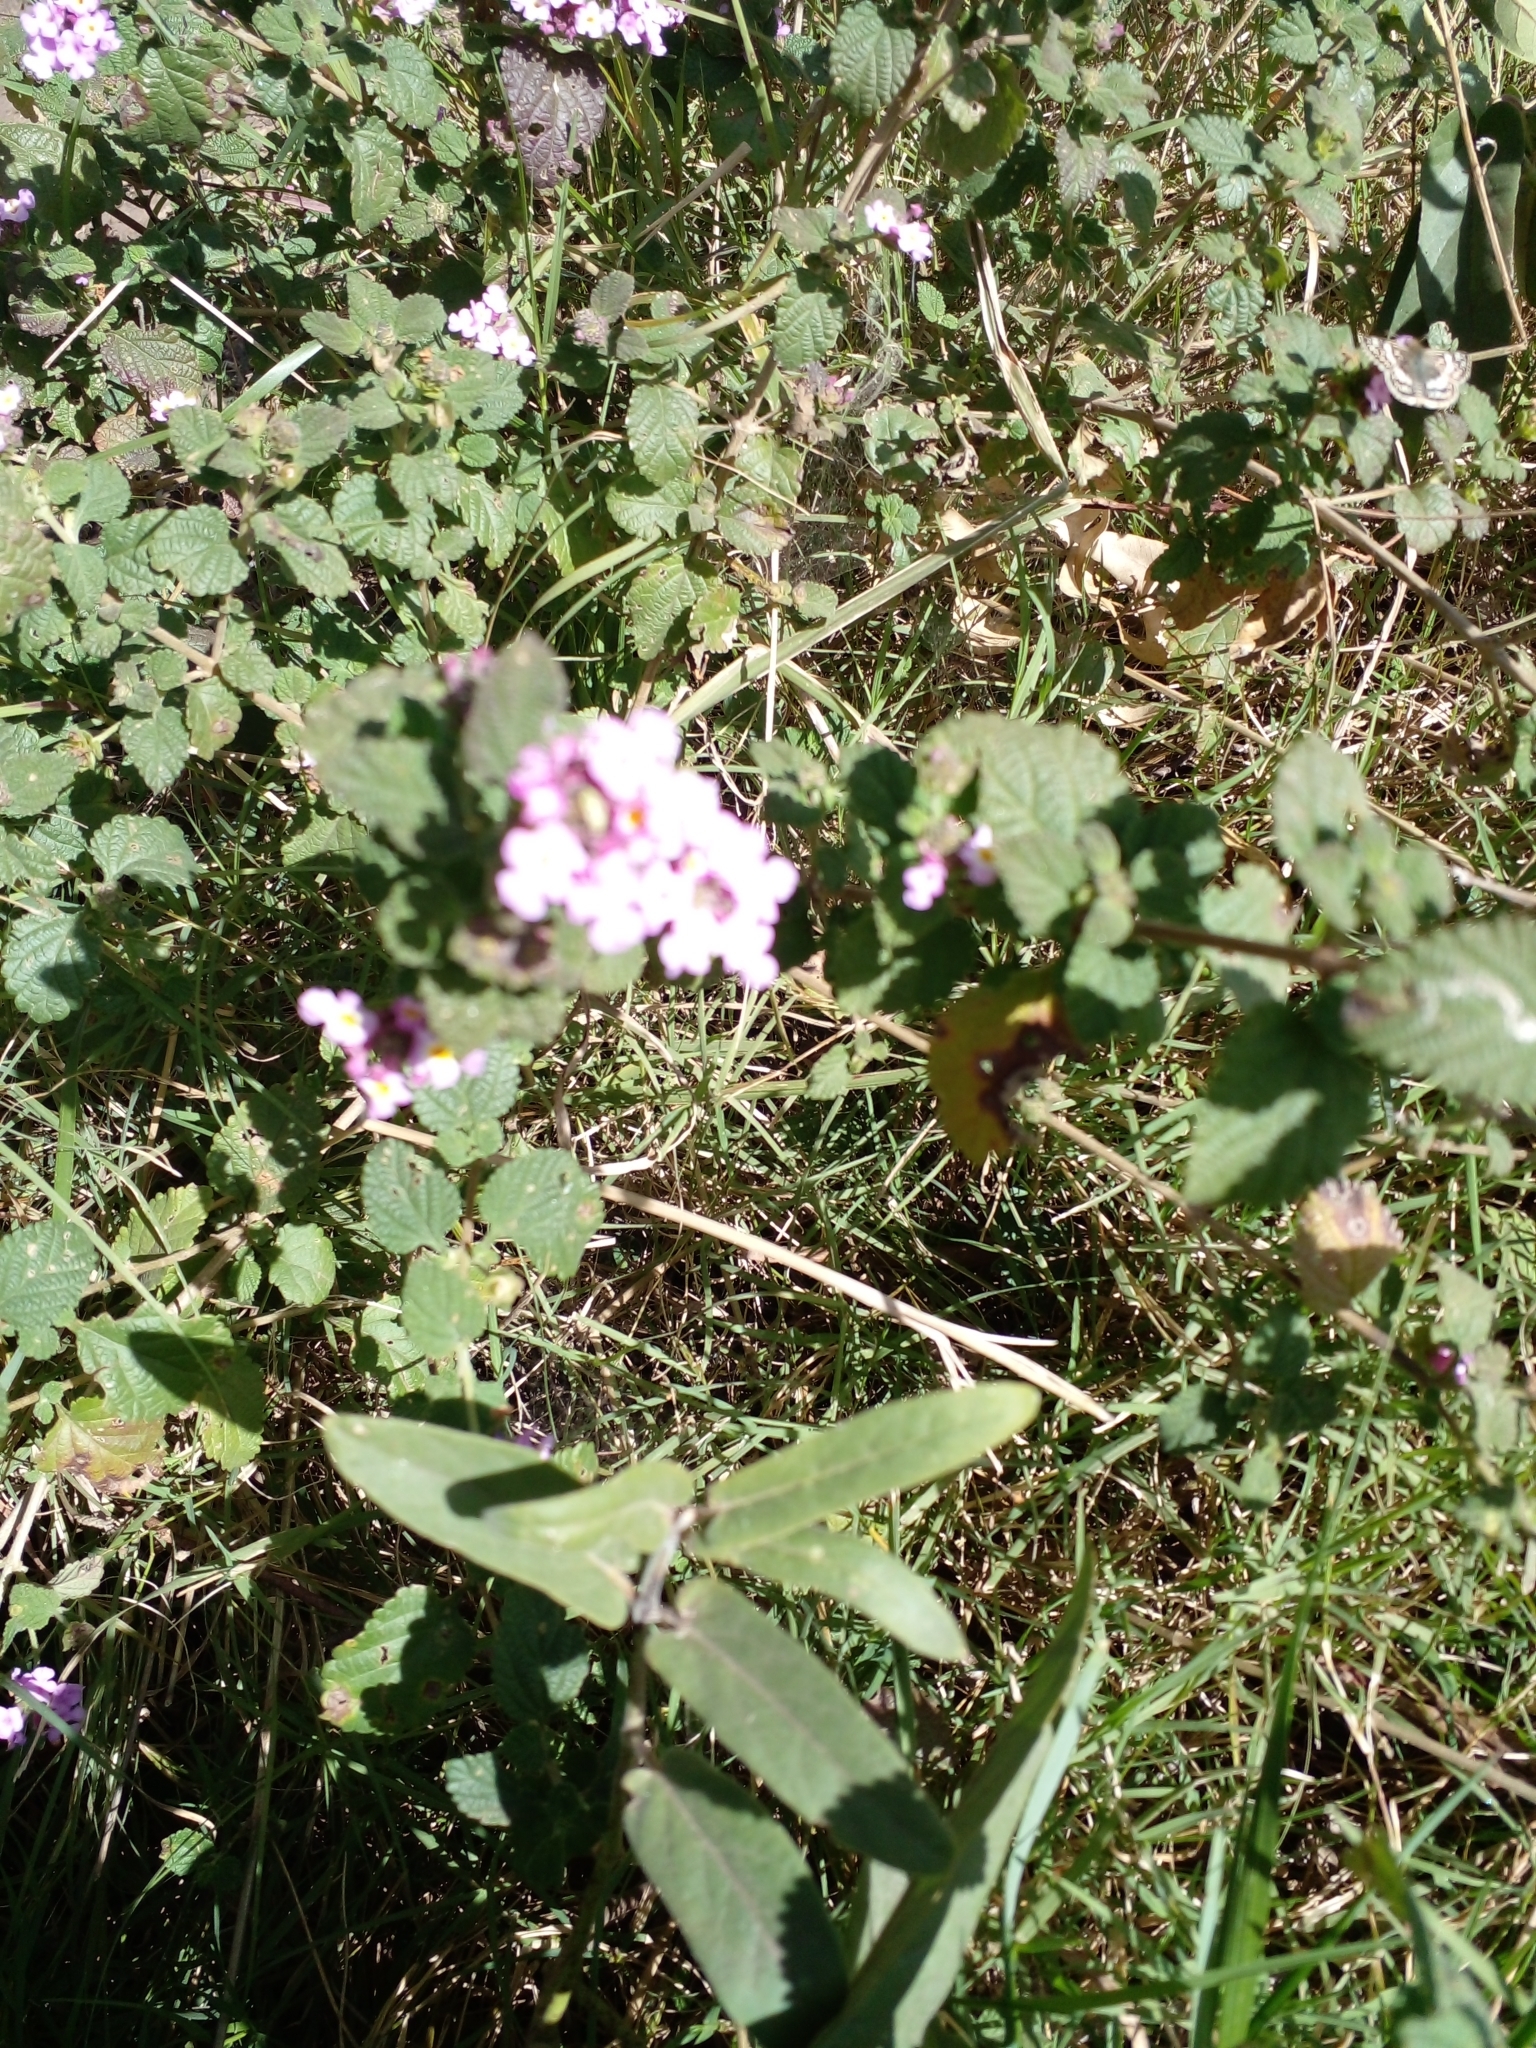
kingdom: Plantae
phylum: Tracheophyta
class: Magnoliopsida
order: Lamiales
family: Verbenaceae
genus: Lantana
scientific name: Lantana megapotamica
